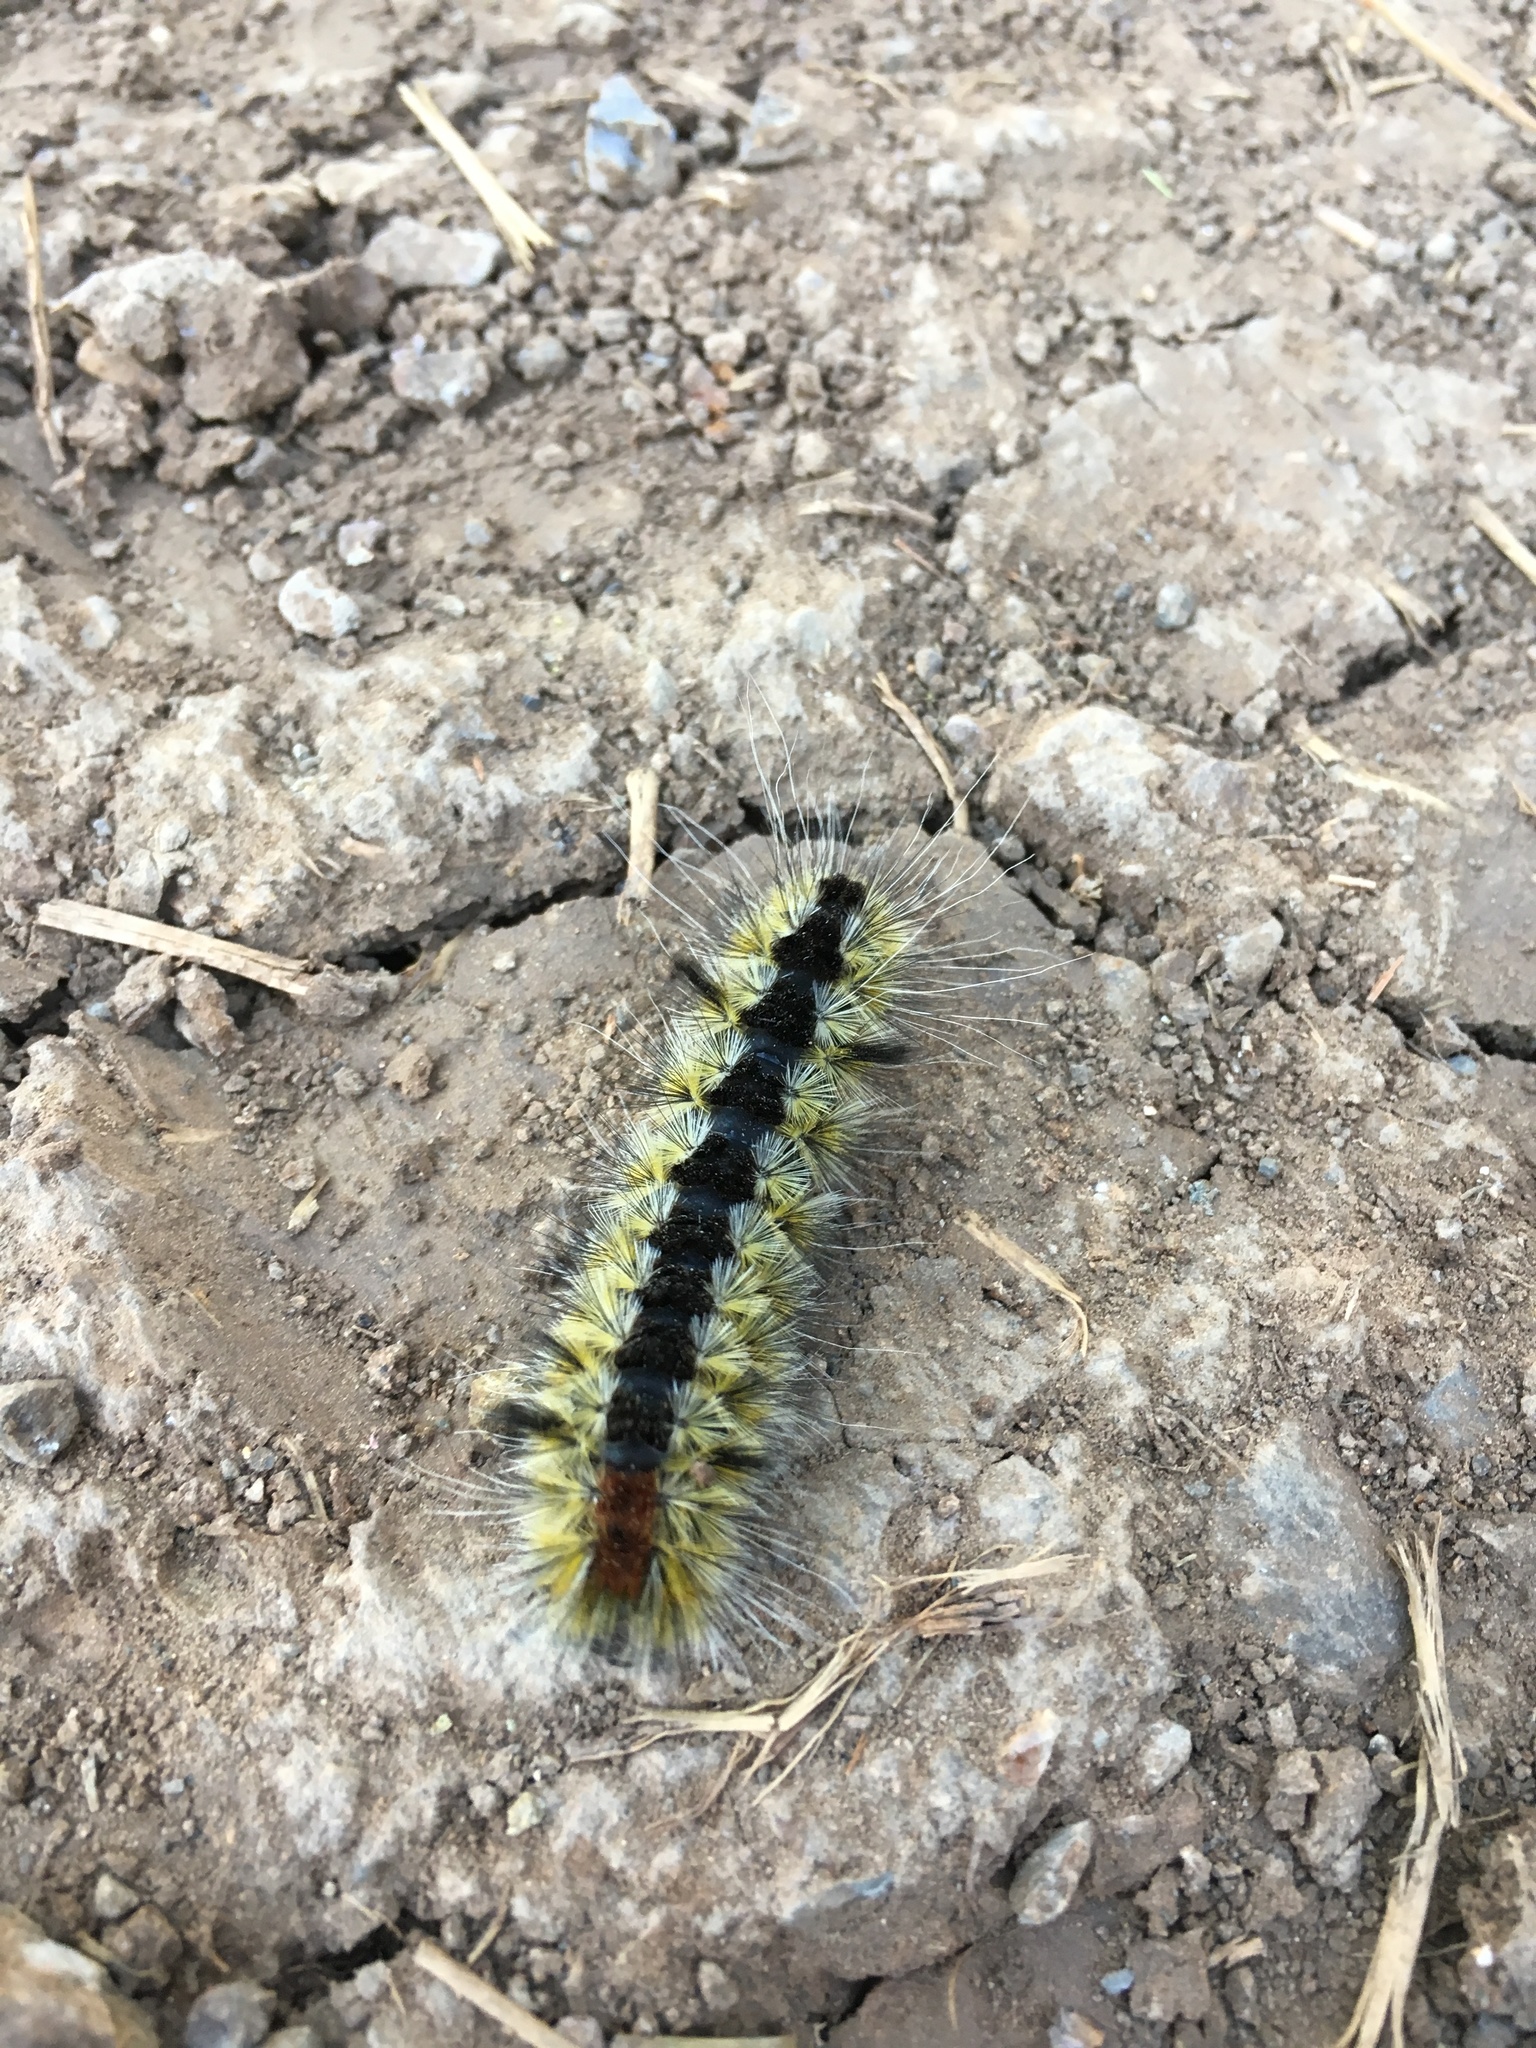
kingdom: Animalia
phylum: Arthropoda
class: Insecta
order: Lepidoptera
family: Erebidae
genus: Lophocampa
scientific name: Lophocampa ingens
